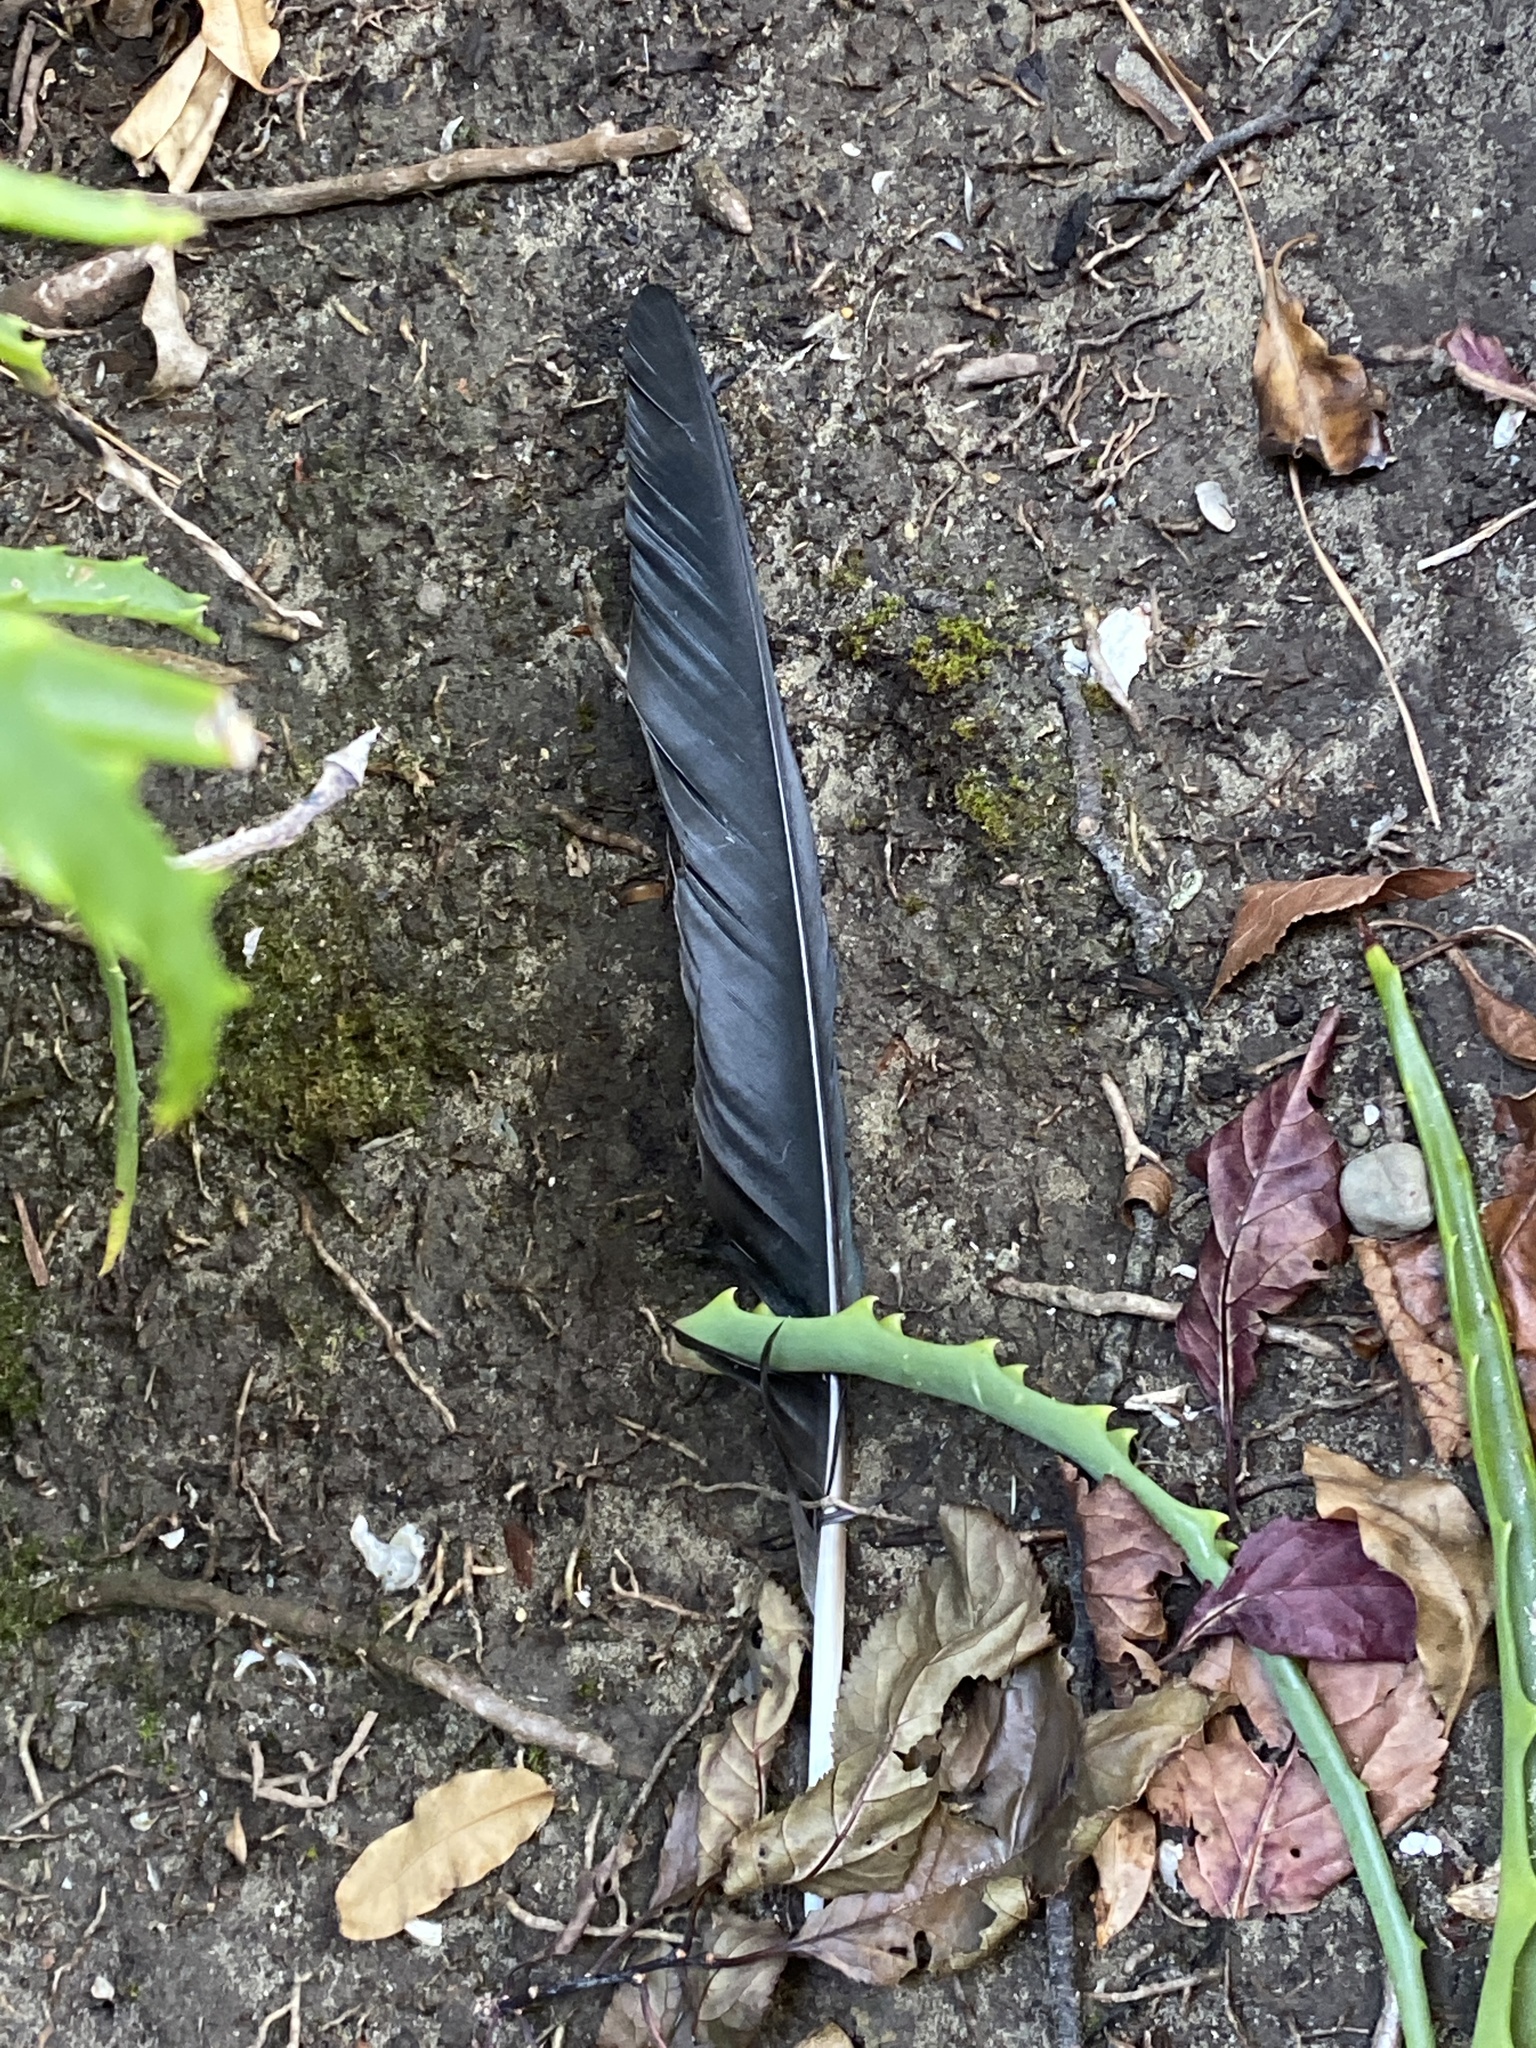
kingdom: Animalia
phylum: Chordata
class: Aves
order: Passeriformes
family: Corvidae
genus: Corvus
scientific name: Corvus brachyrhynchos
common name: American crow
